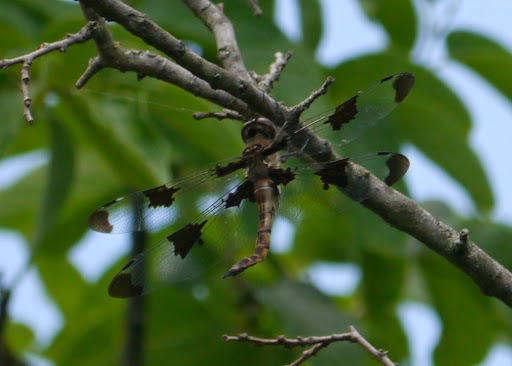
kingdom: Animalia
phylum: Arthropoda
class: Insecta
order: Odonata
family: Corduliidae
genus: Epitheca
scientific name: Epitheca princeps
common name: Prince baskettail
